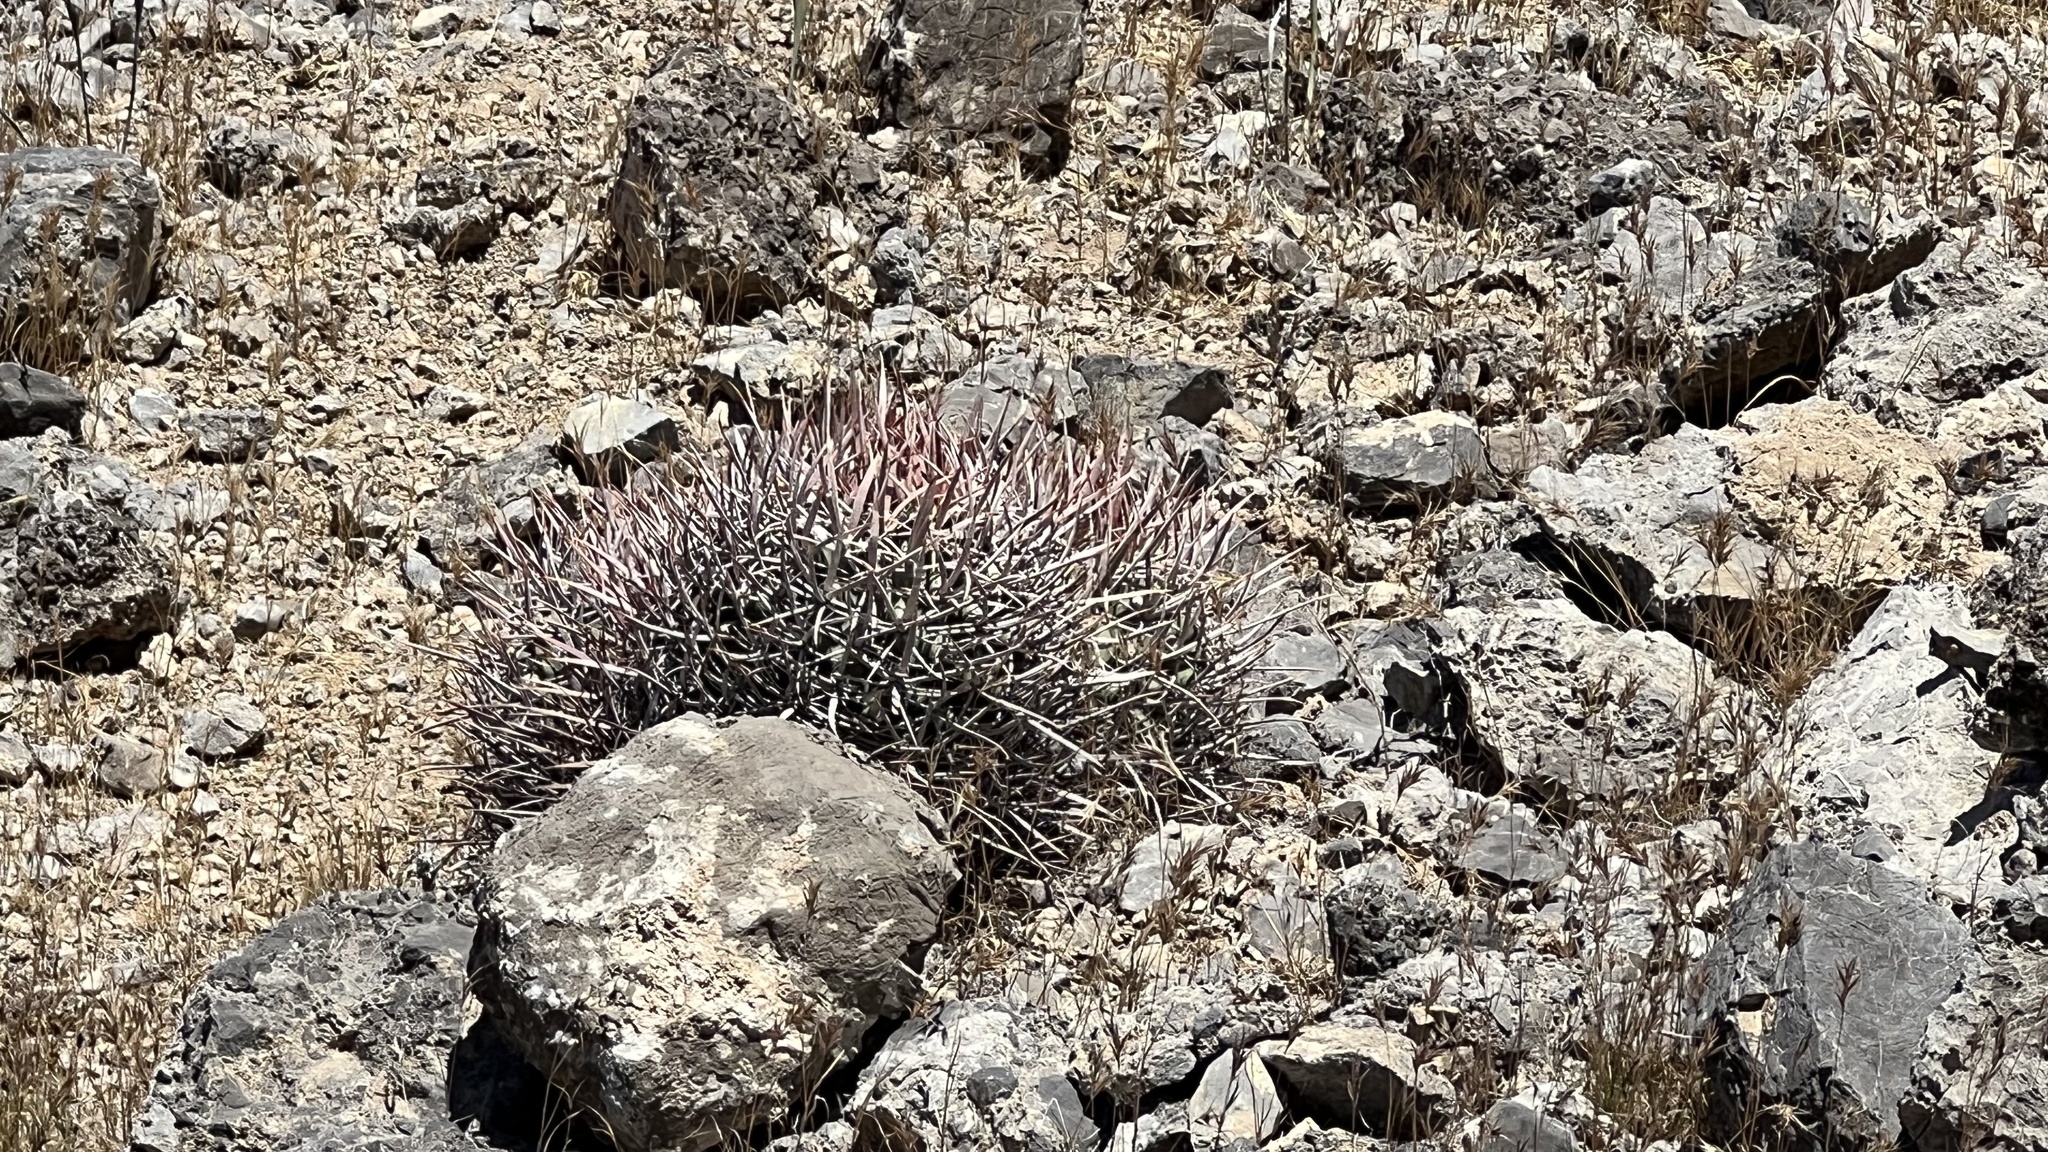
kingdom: Plantae
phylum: Tracheophyta
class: Magnoliopsida
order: Caryophyllales
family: Cactaceae
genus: Echinocactus
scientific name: Echinocactus polycephalus
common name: Cottontop cactus
